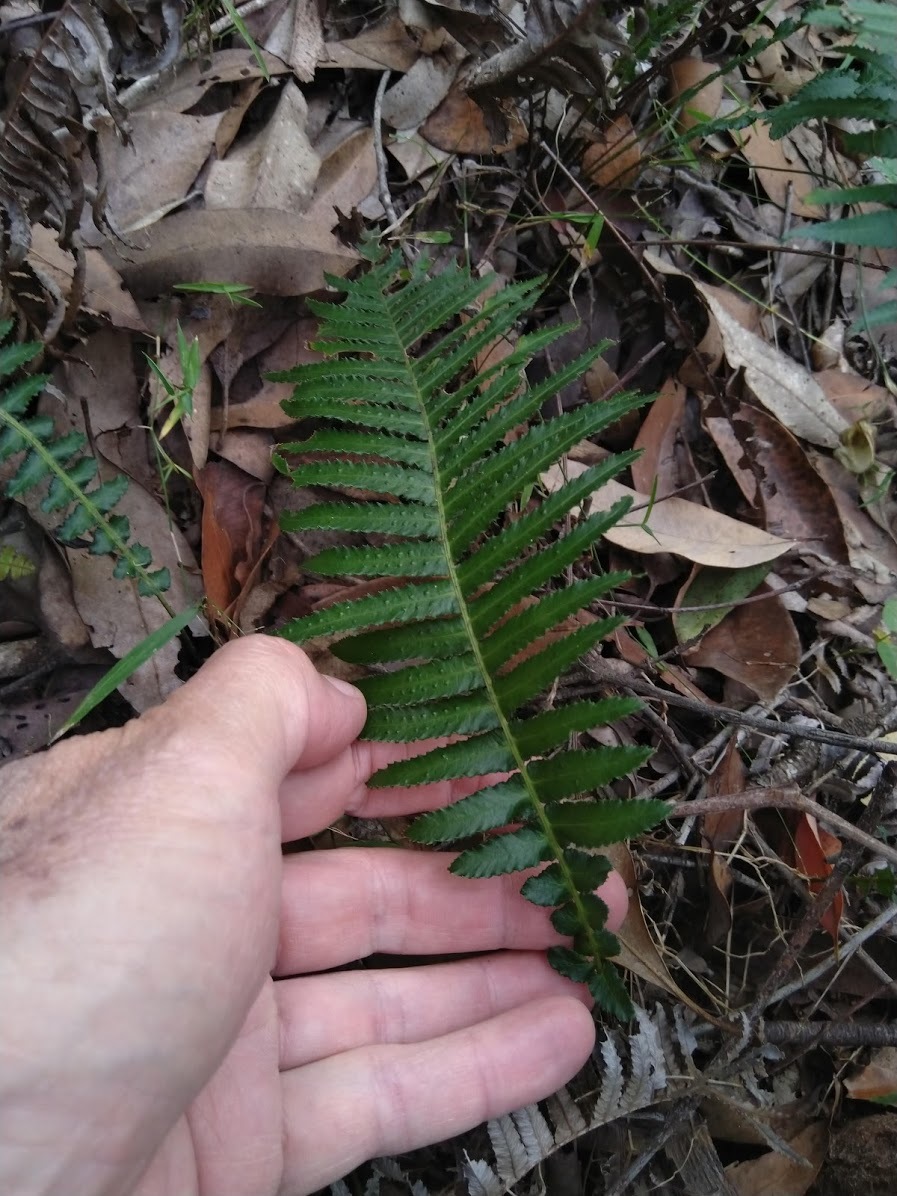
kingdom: Plantae
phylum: Tracheophyta
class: Polypodiopsida
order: Polypodiales
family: Blechnaceae
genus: Doodia
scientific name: Doodia aspera
